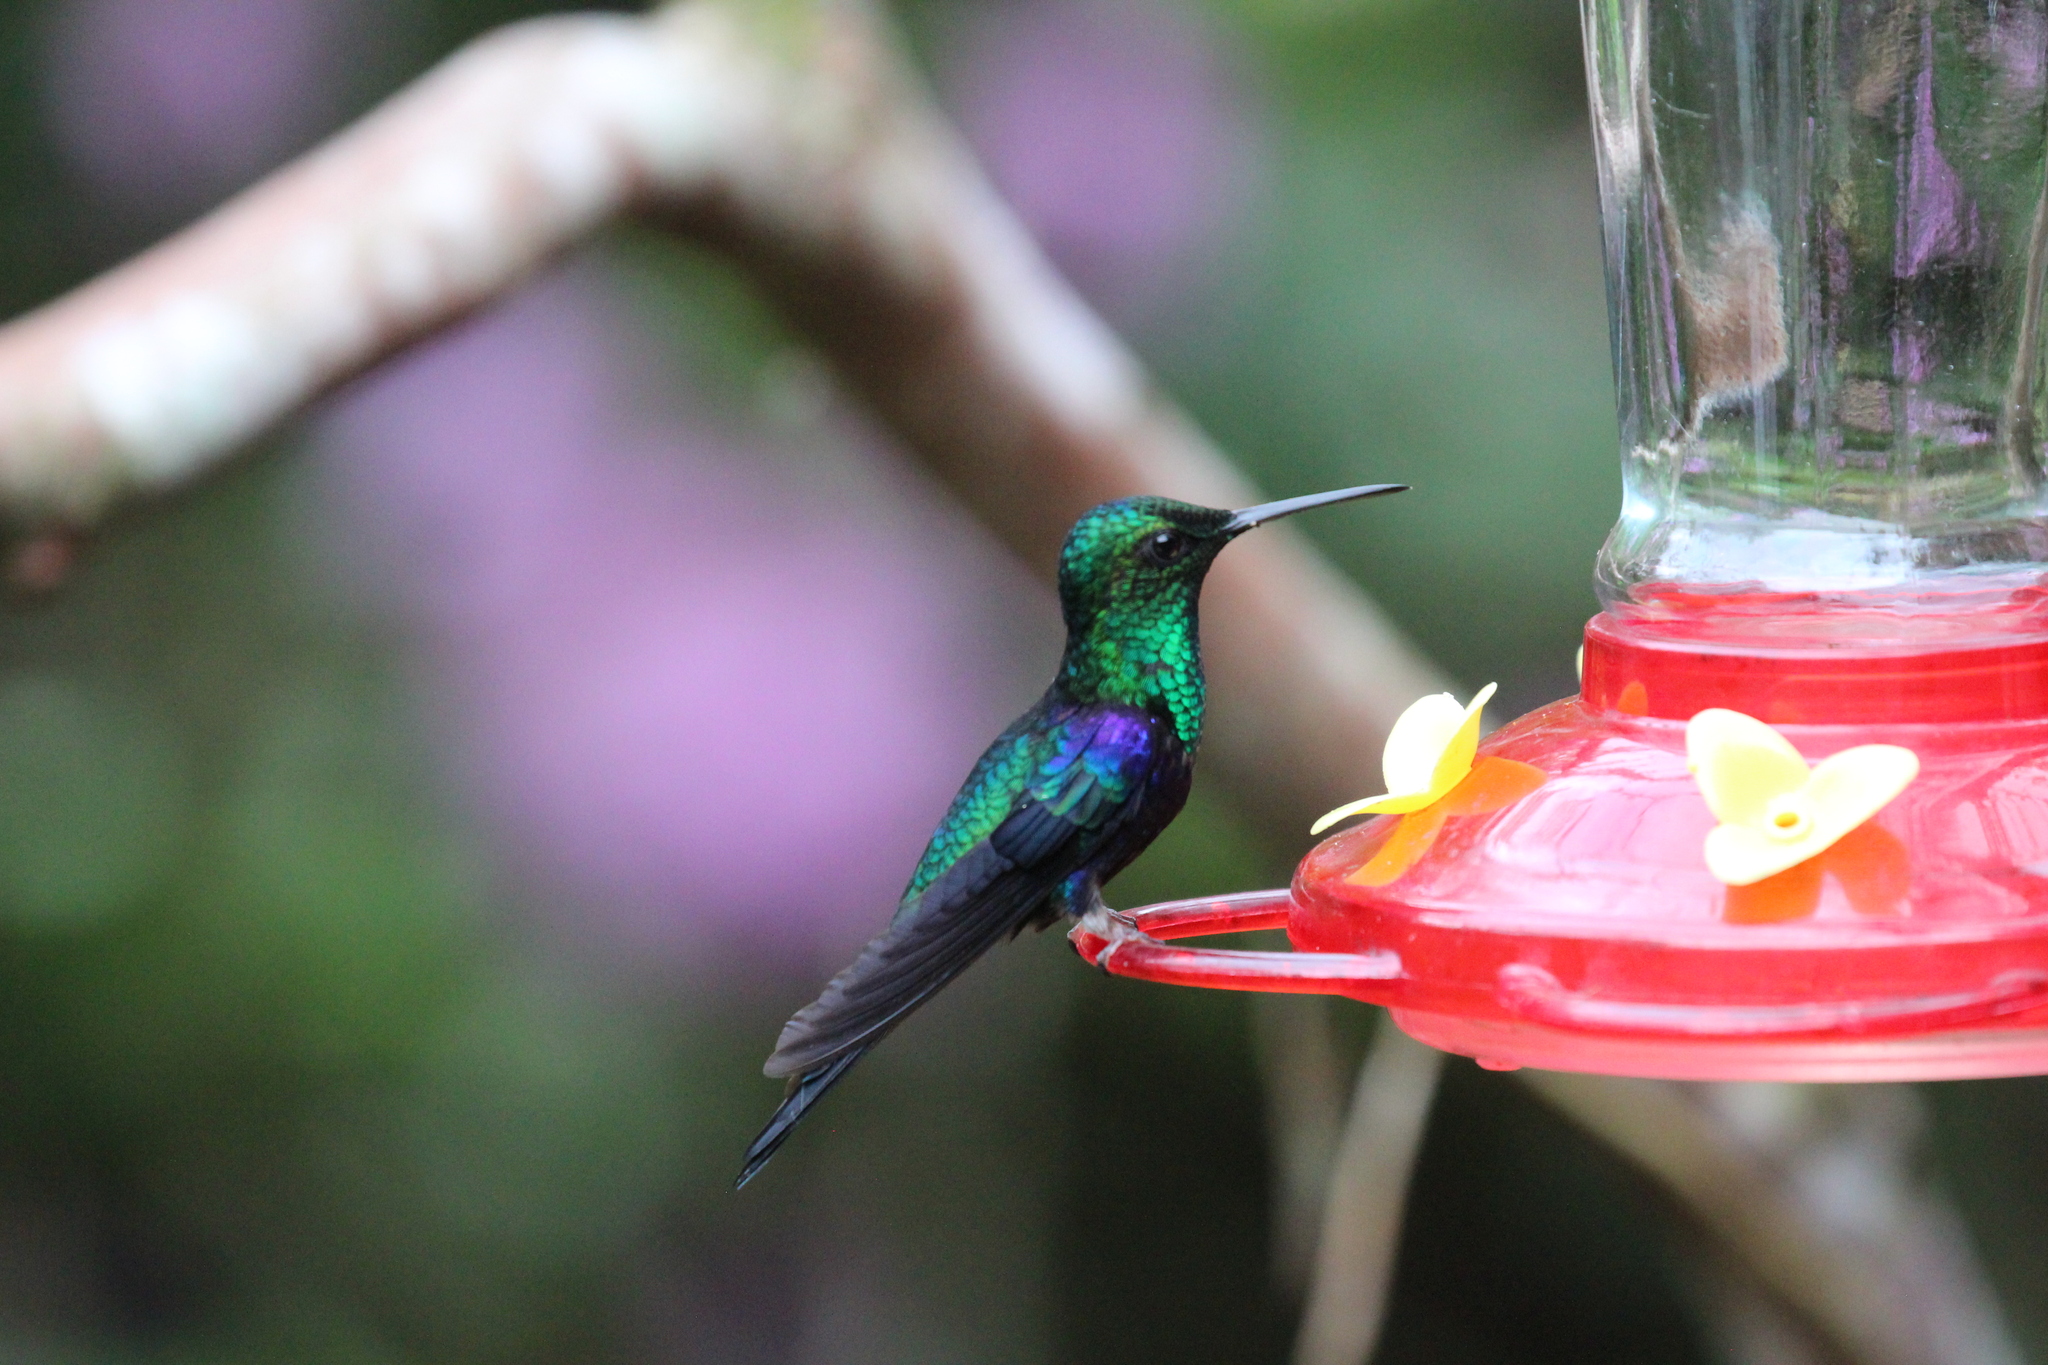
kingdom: Animalia
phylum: Chordata
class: Aves
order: Apodiformes
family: Trochilidae
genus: Thalurania
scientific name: Thalurania colombica
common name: Crowned woodnymph
